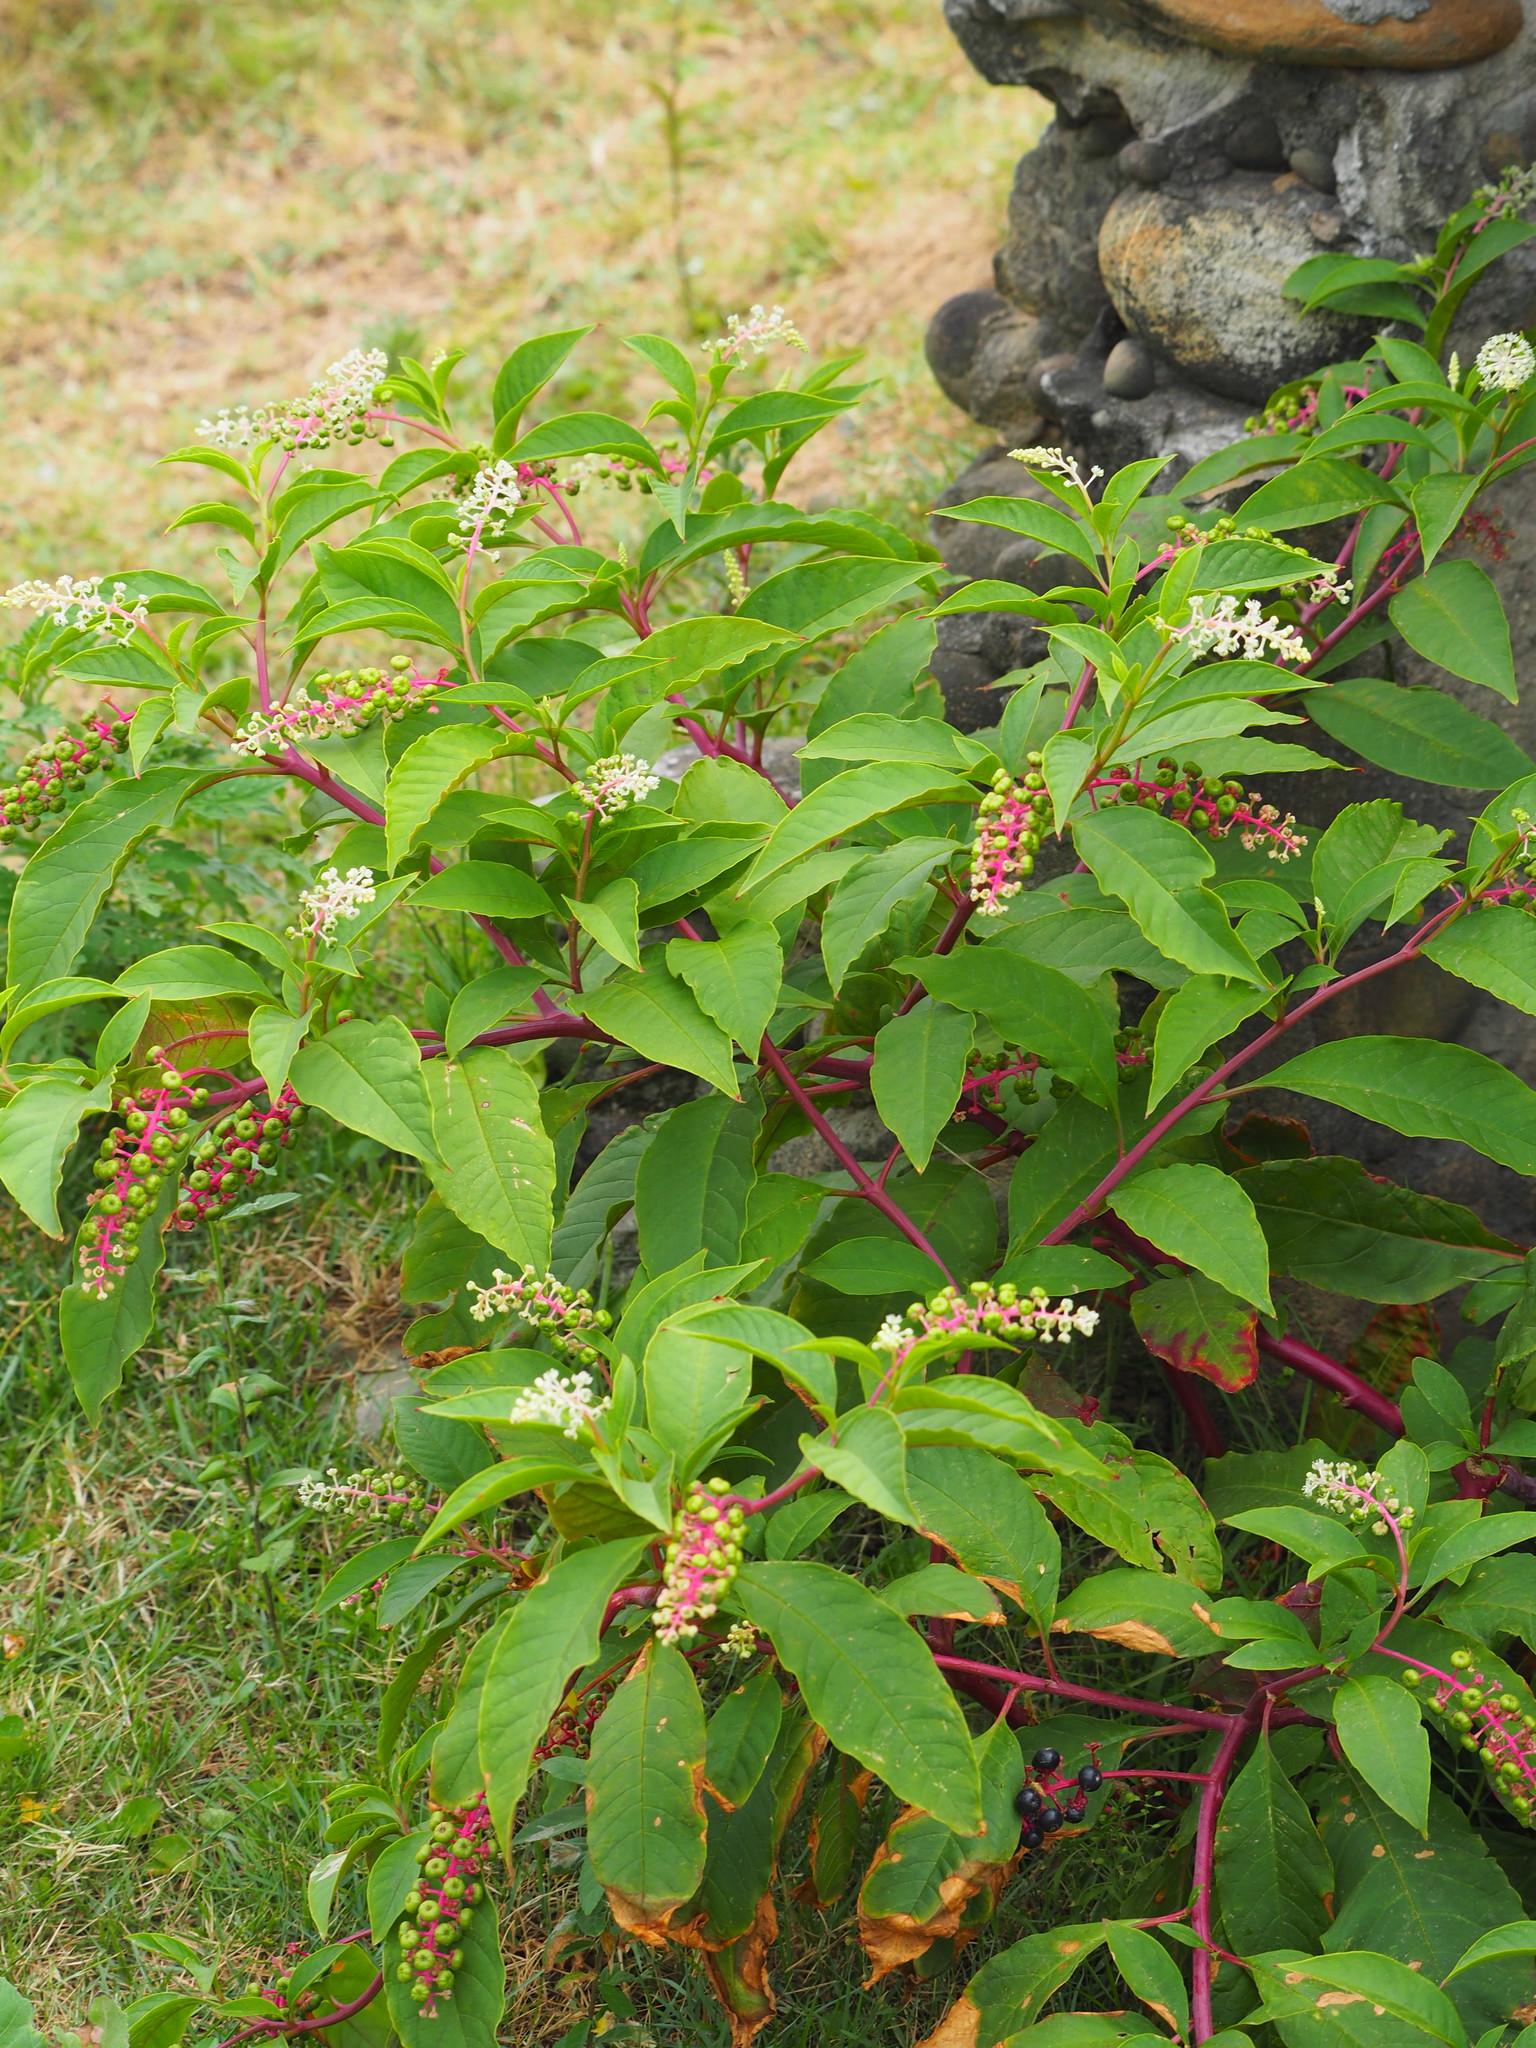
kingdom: Plantae
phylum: Tracheophyta
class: Magnoliopsida
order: Caryophyllales
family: Phytolaccaceae
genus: Phytolacca
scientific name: Phytolacca americana
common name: American pokeweed
